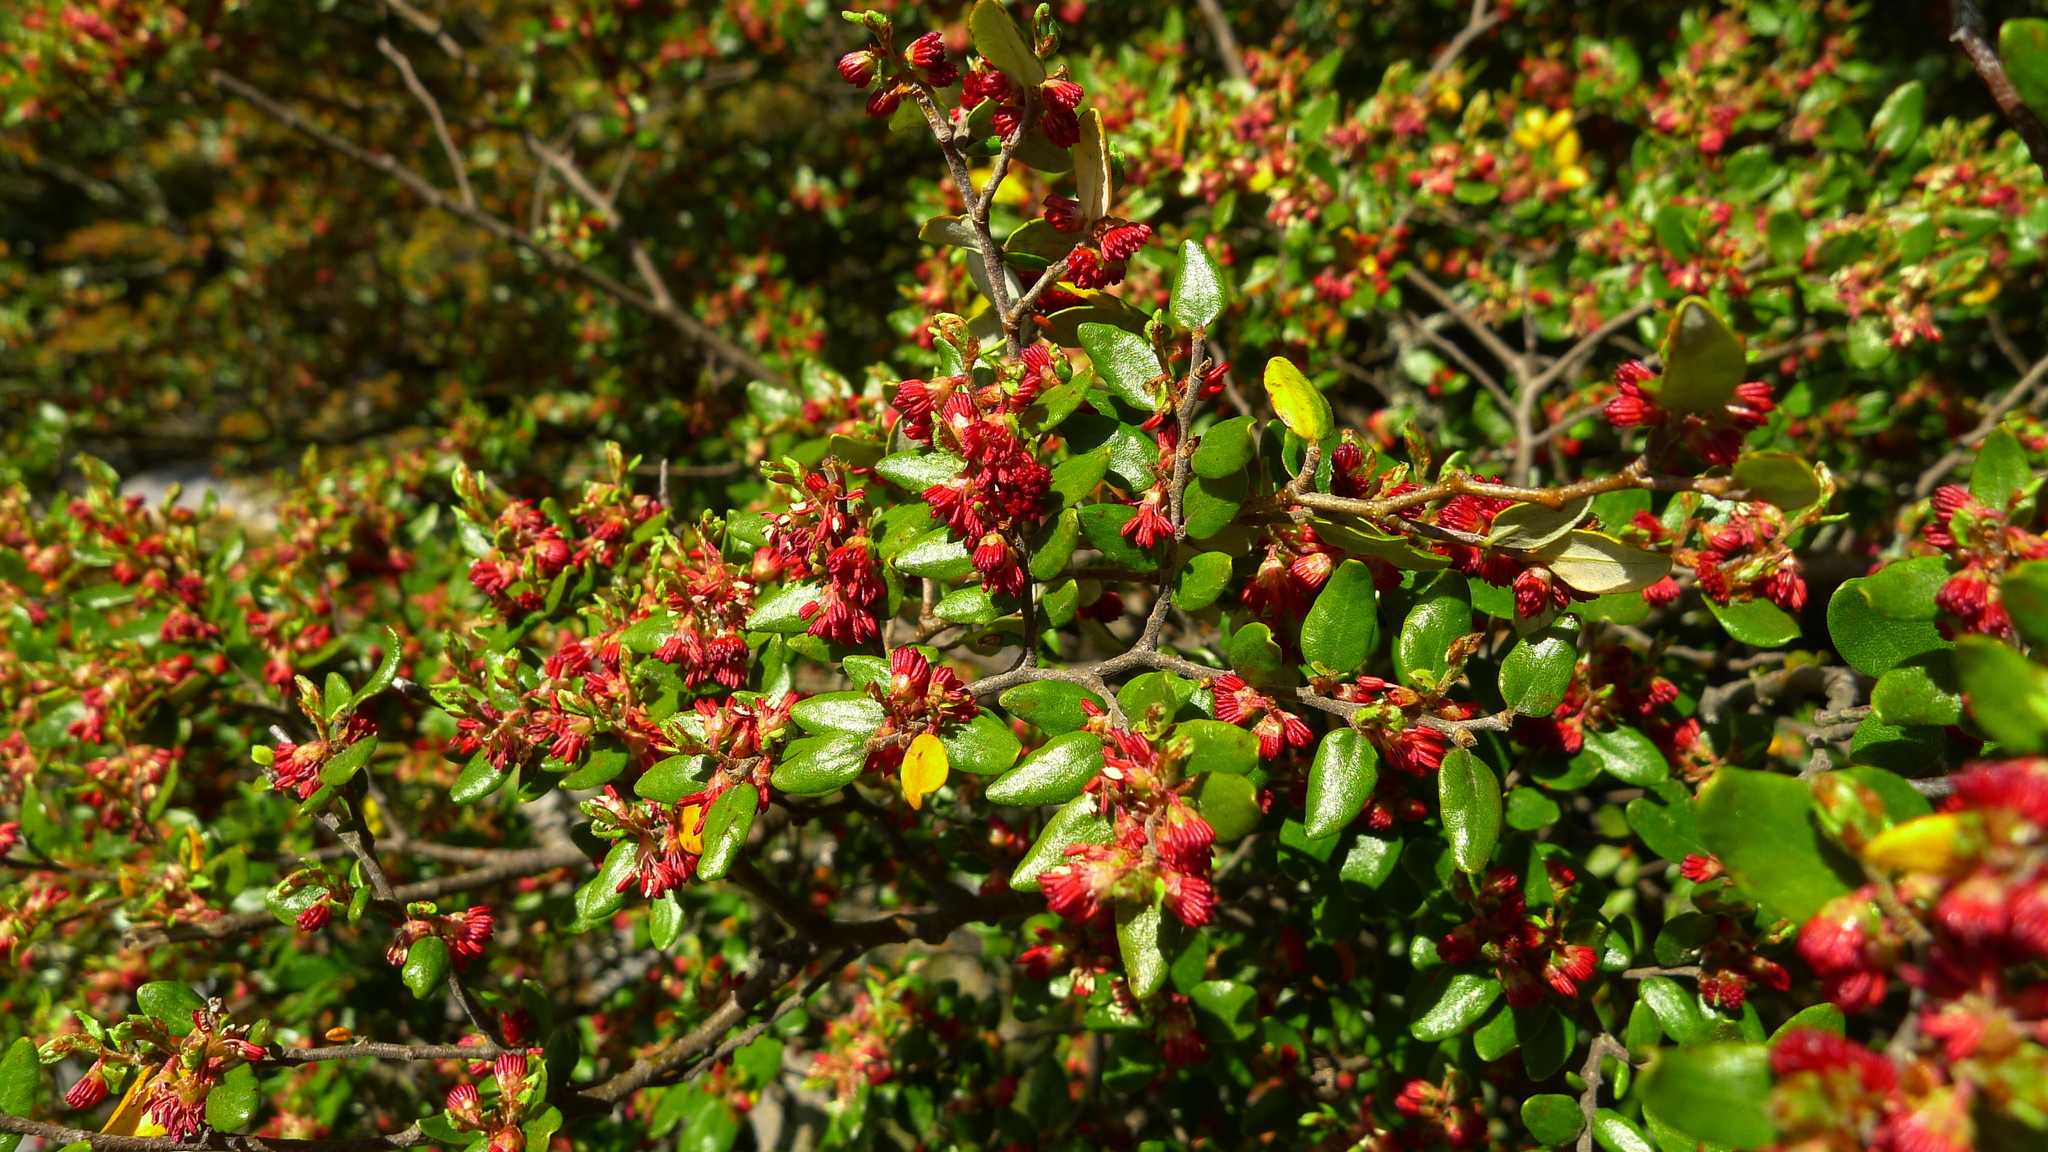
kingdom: Plantae
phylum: Tracheophyta
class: Magnoliopsida
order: Fagales
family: Nothofagaceae
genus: Nothofagus
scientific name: Nothofagus cliffortioides
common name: Mountain beech
